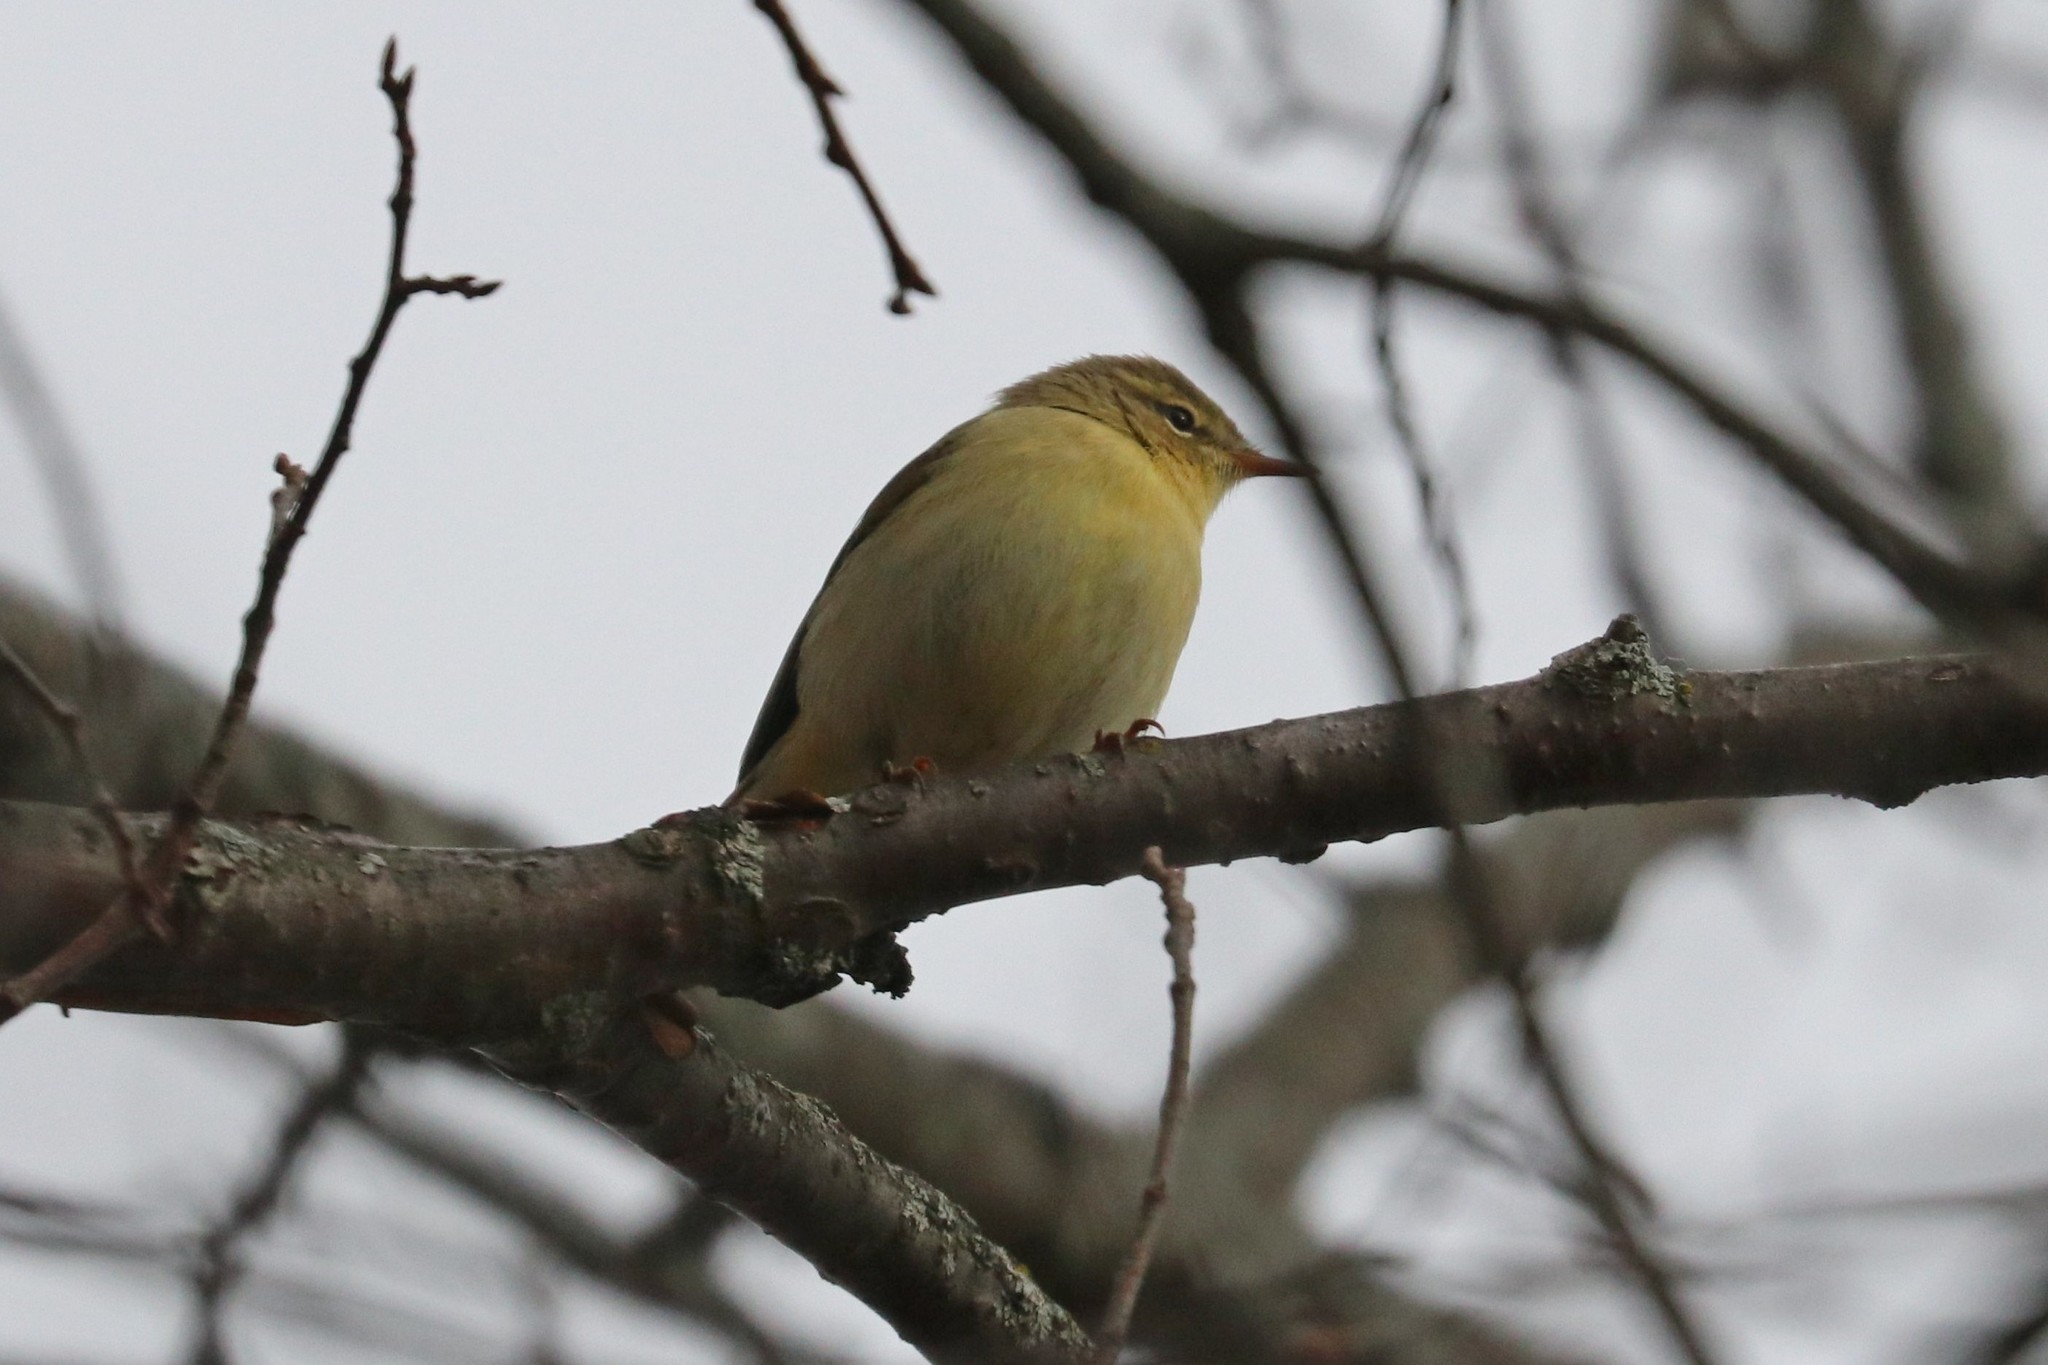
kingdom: Animalia
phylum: Chordata
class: Aves
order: Passeriformes
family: Phylloscopidae
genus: Phylloscopus
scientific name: Phylloscopus trochilus
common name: Willow warbler
